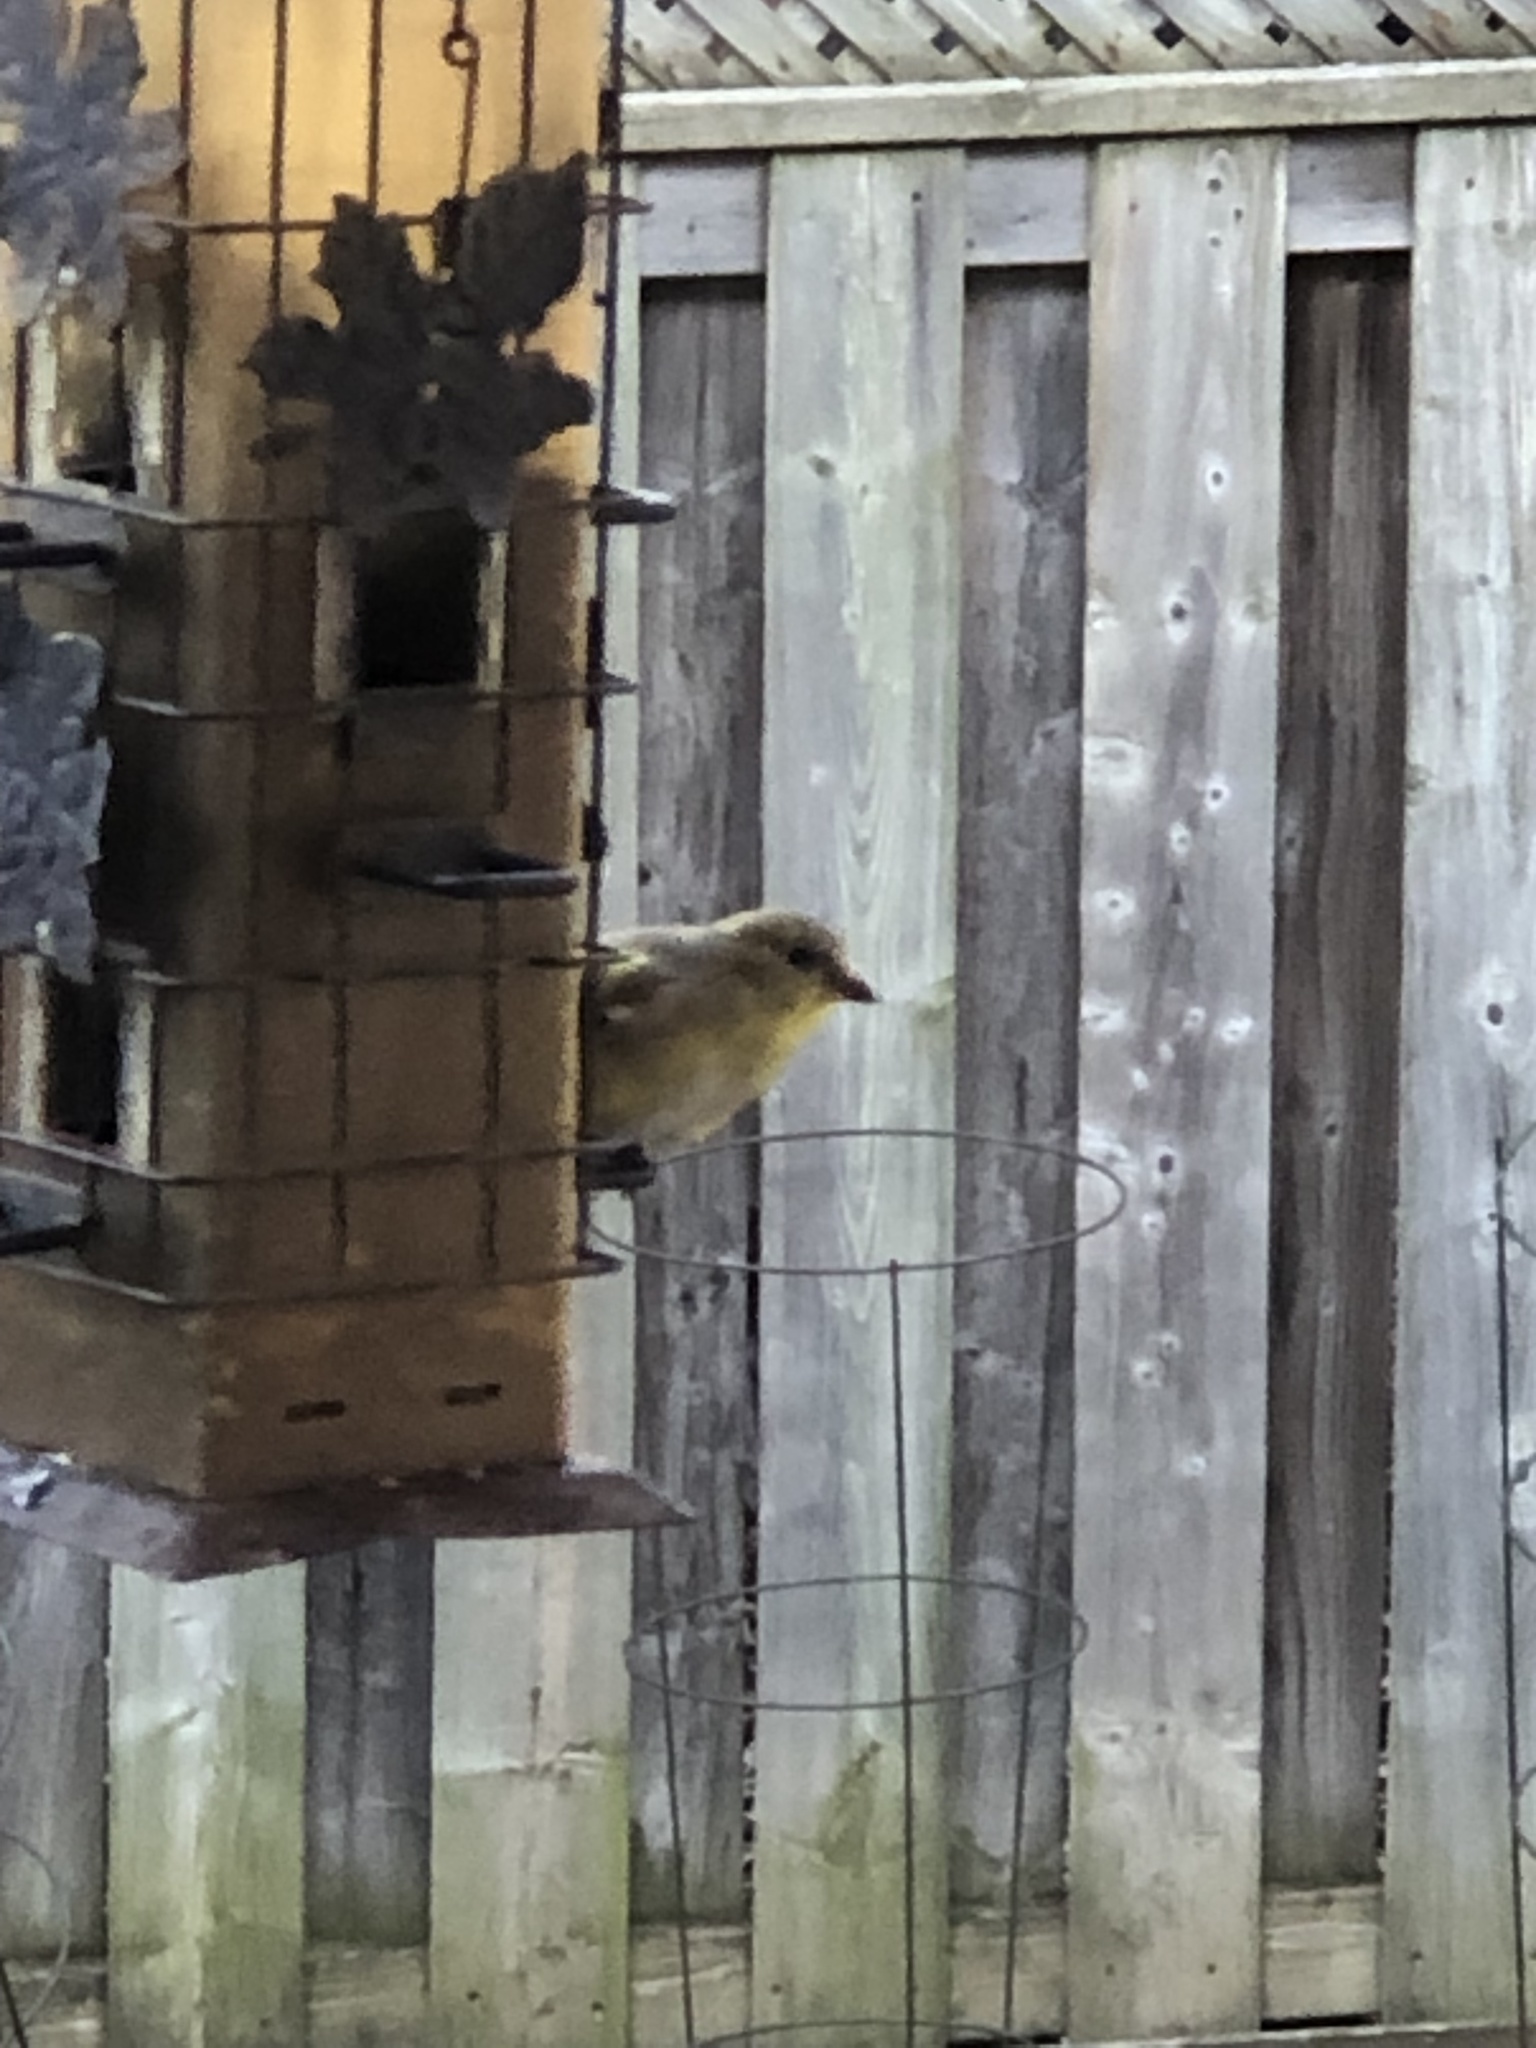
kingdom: Animalia
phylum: Chordata
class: Aves
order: Passeriformes
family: Fringillidae
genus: Spinus
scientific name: Spinus tristis
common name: American goldfinch
